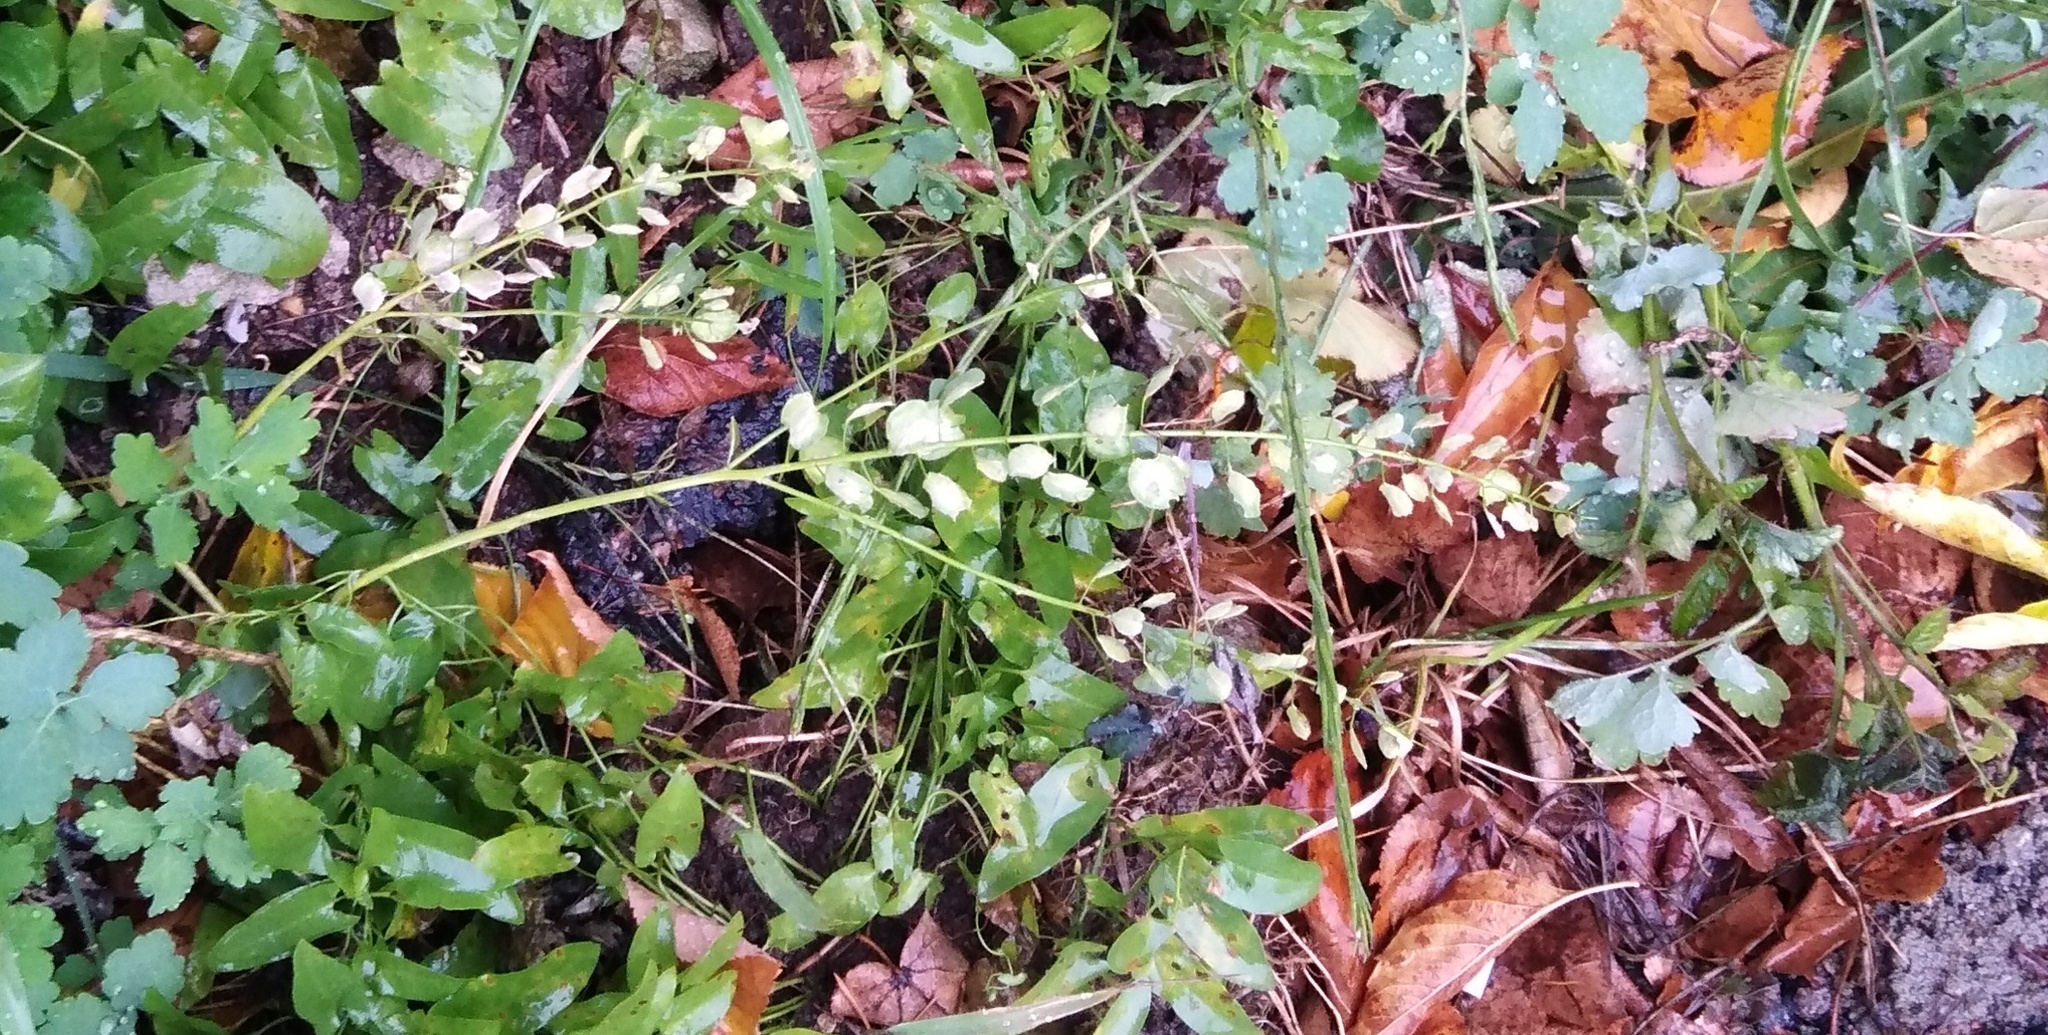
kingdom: Plantae
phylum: Tracheophyta
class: Magnoliopsida
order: Brassicales
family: Brassicaceae
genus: Thlaspi
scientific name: Thlaspi arvense
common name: Field pennycress
